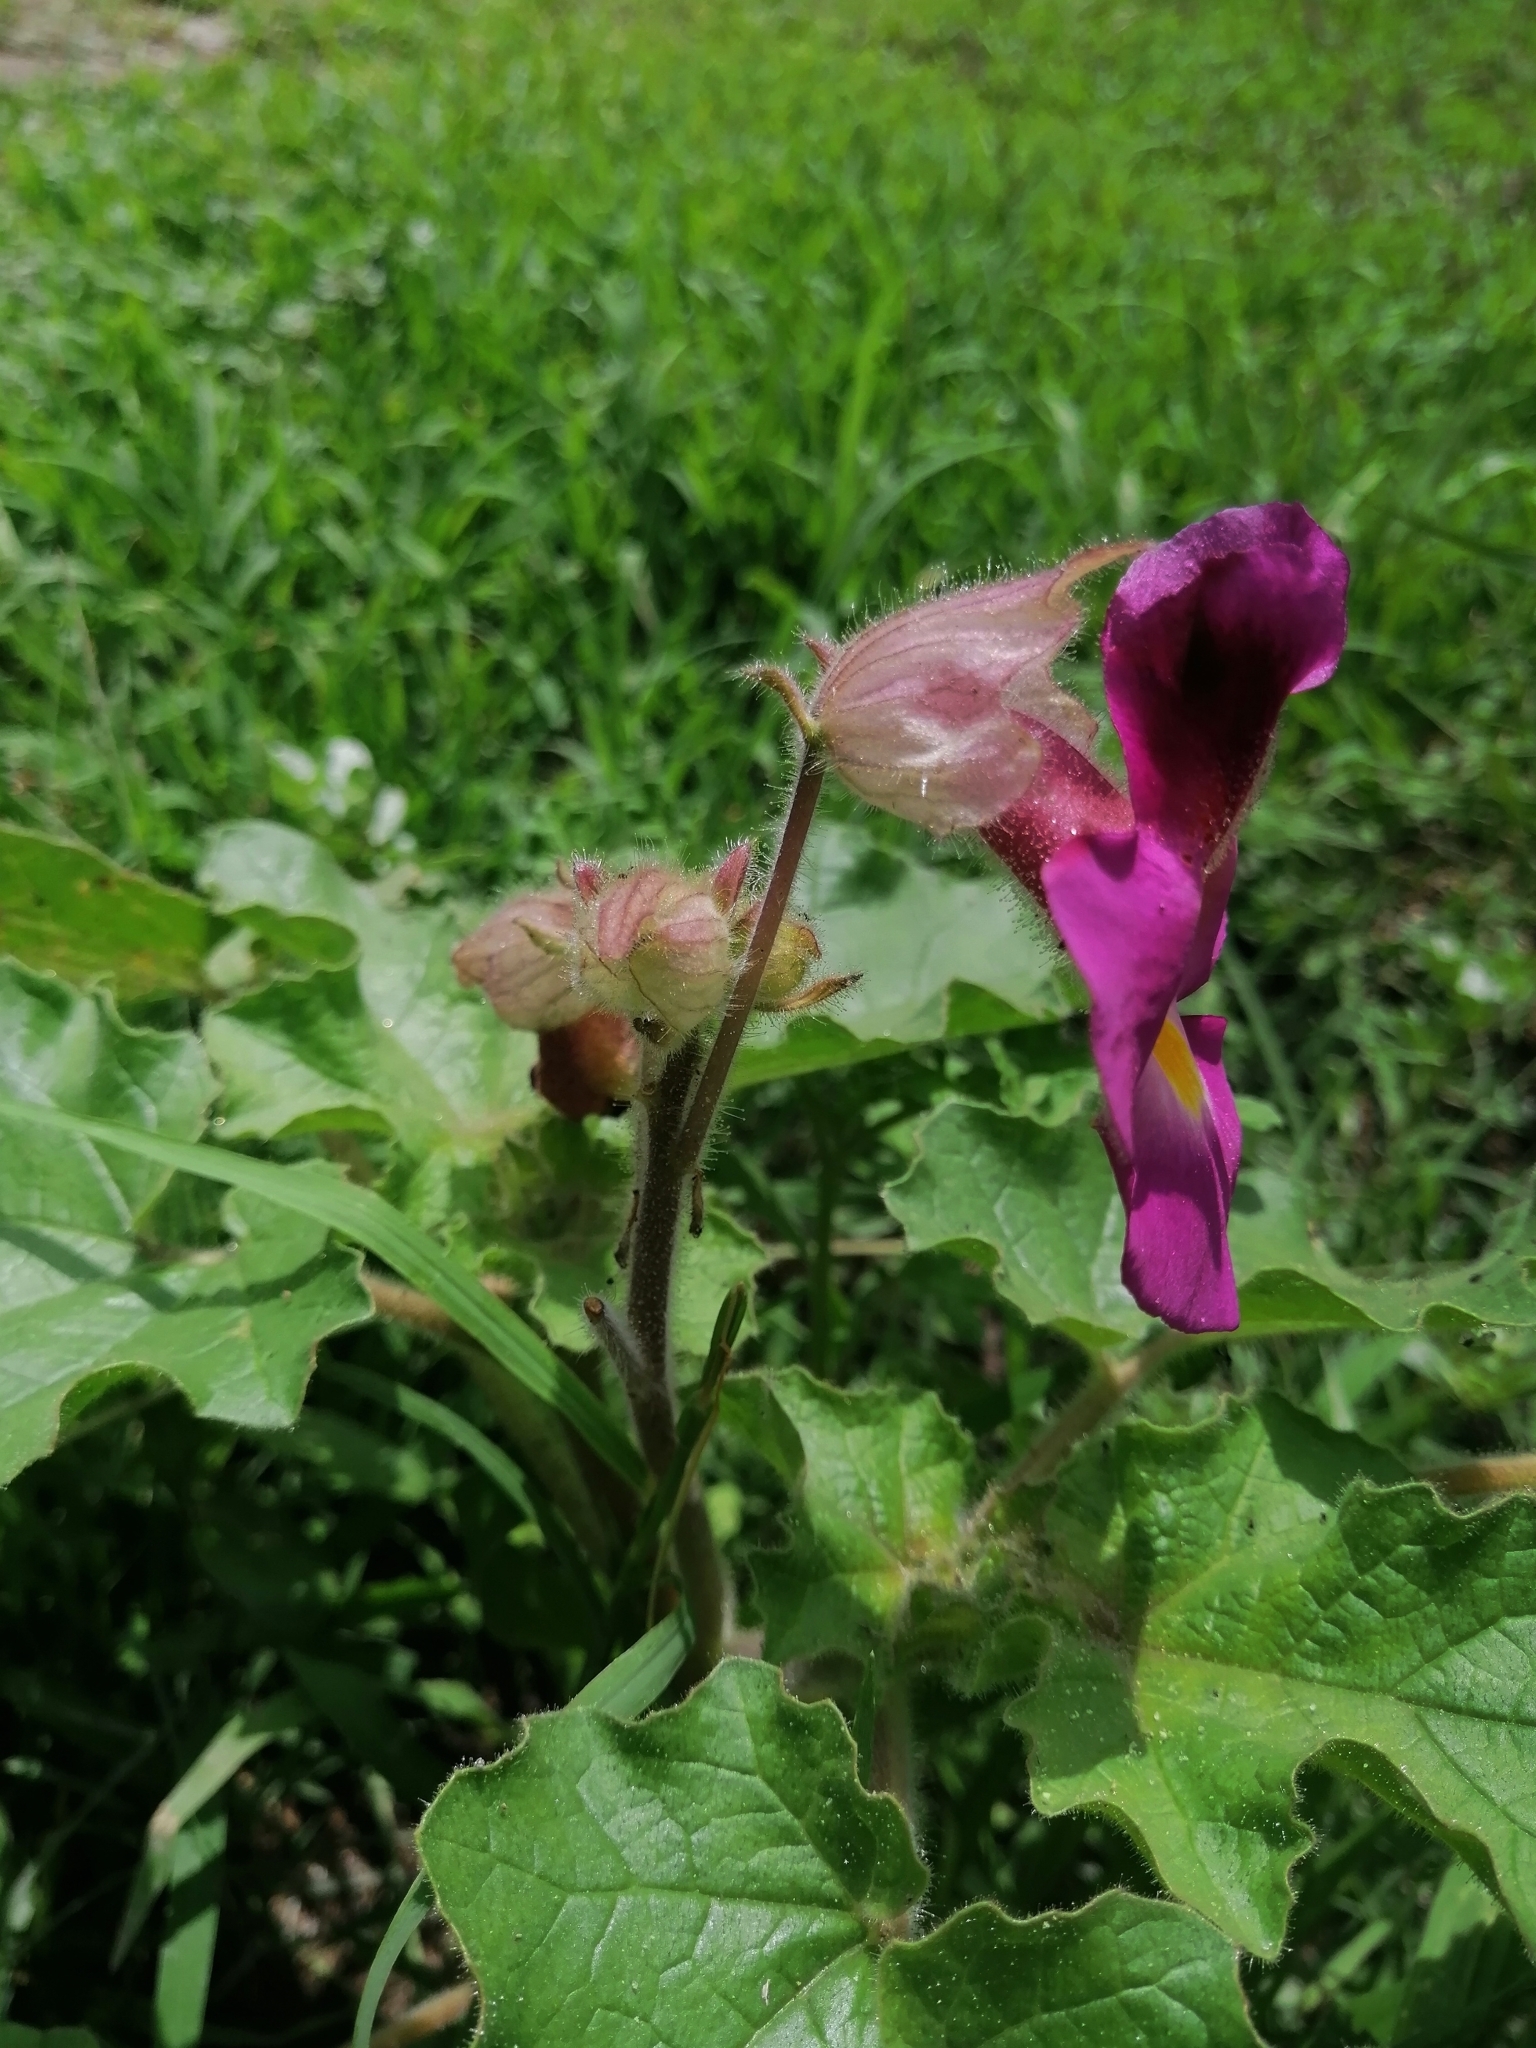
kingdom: Plantae
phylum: Tracheophyta
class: Magnoliopsida
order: Lamiales
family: Martyniaceae
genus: Proboscidea
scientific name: Proboscidea louisianica
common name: Elephant tusks
